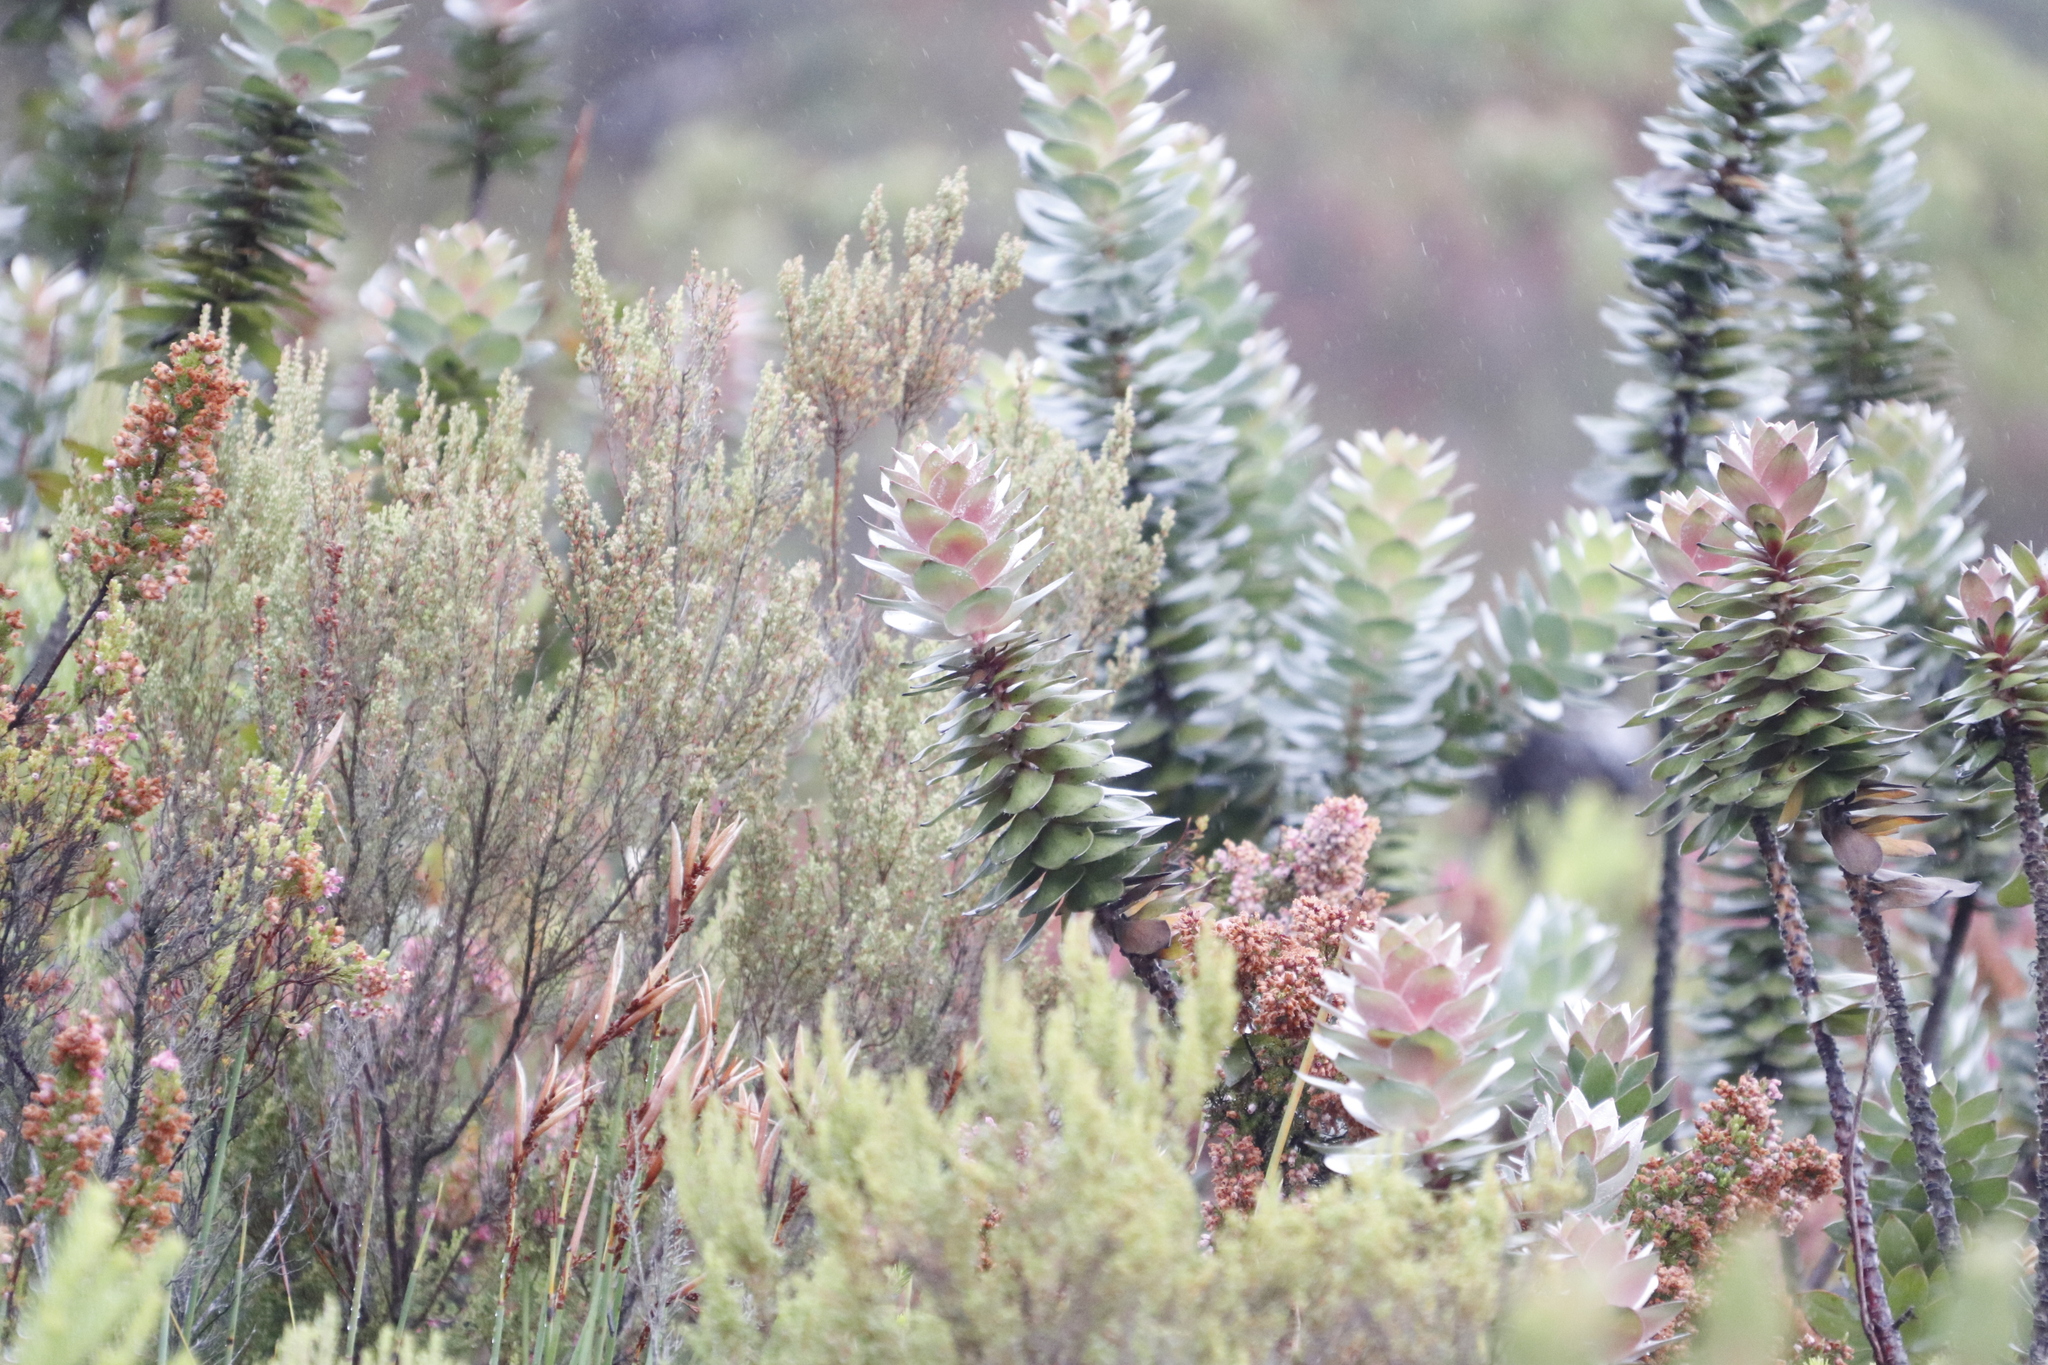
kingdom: Plantae
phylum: Tracheophyta
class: Magnoliopsida
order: Proteales
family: Proteaceae
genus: Mimetes
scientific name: Mimetes argenteus
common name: Silver pagoda
